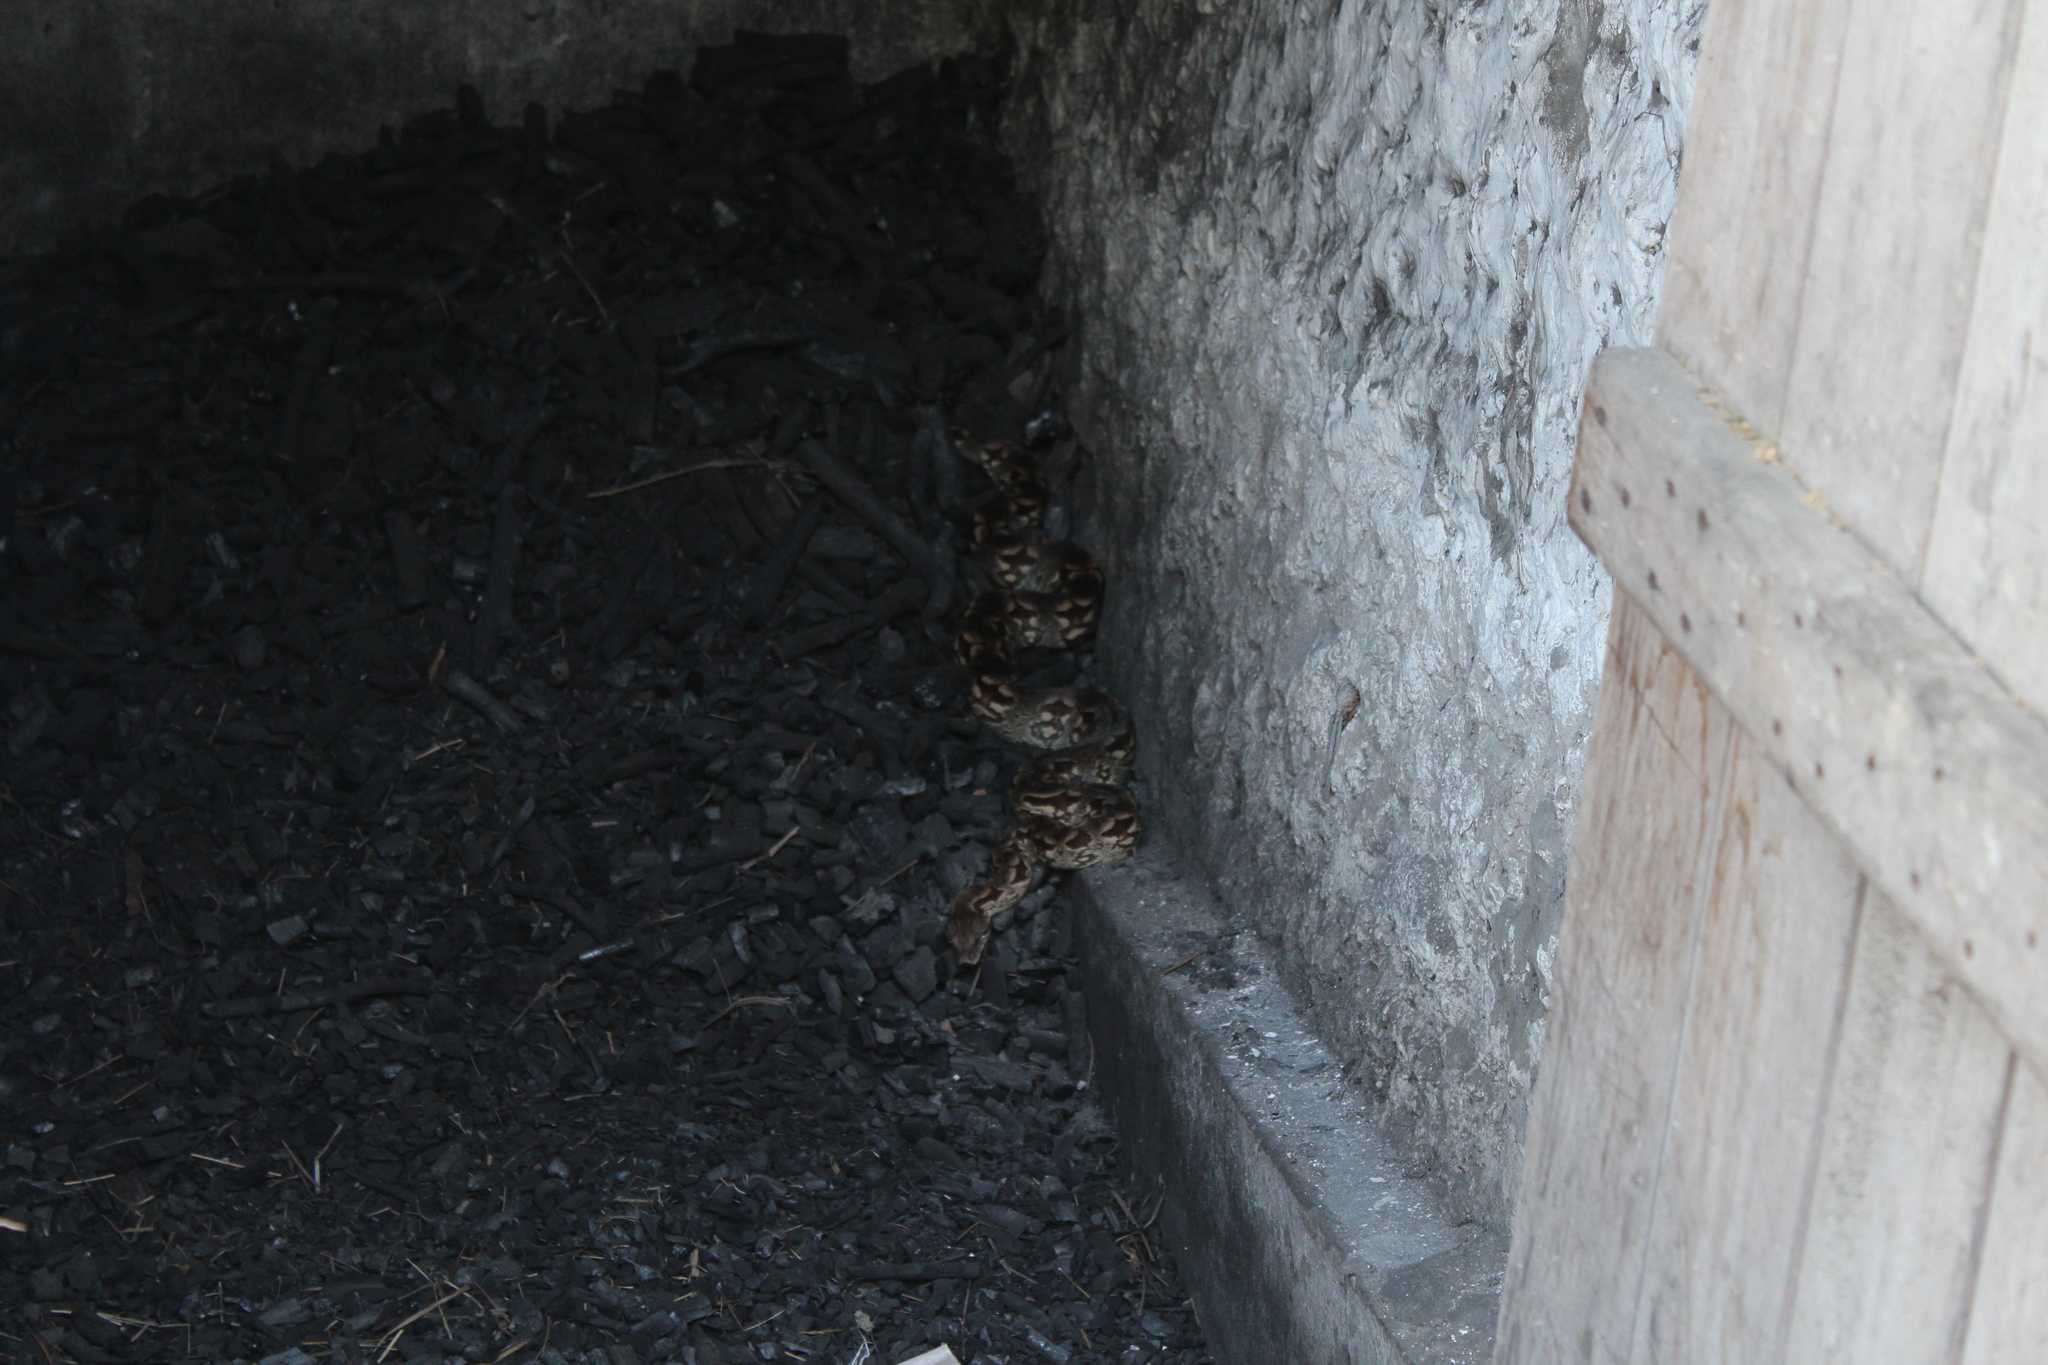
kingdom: Animalia
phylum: Chordata
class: Squamata
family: Boidae
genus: Acrantophis
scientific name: Acrantophis dumerili
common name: Dumeril's boa
